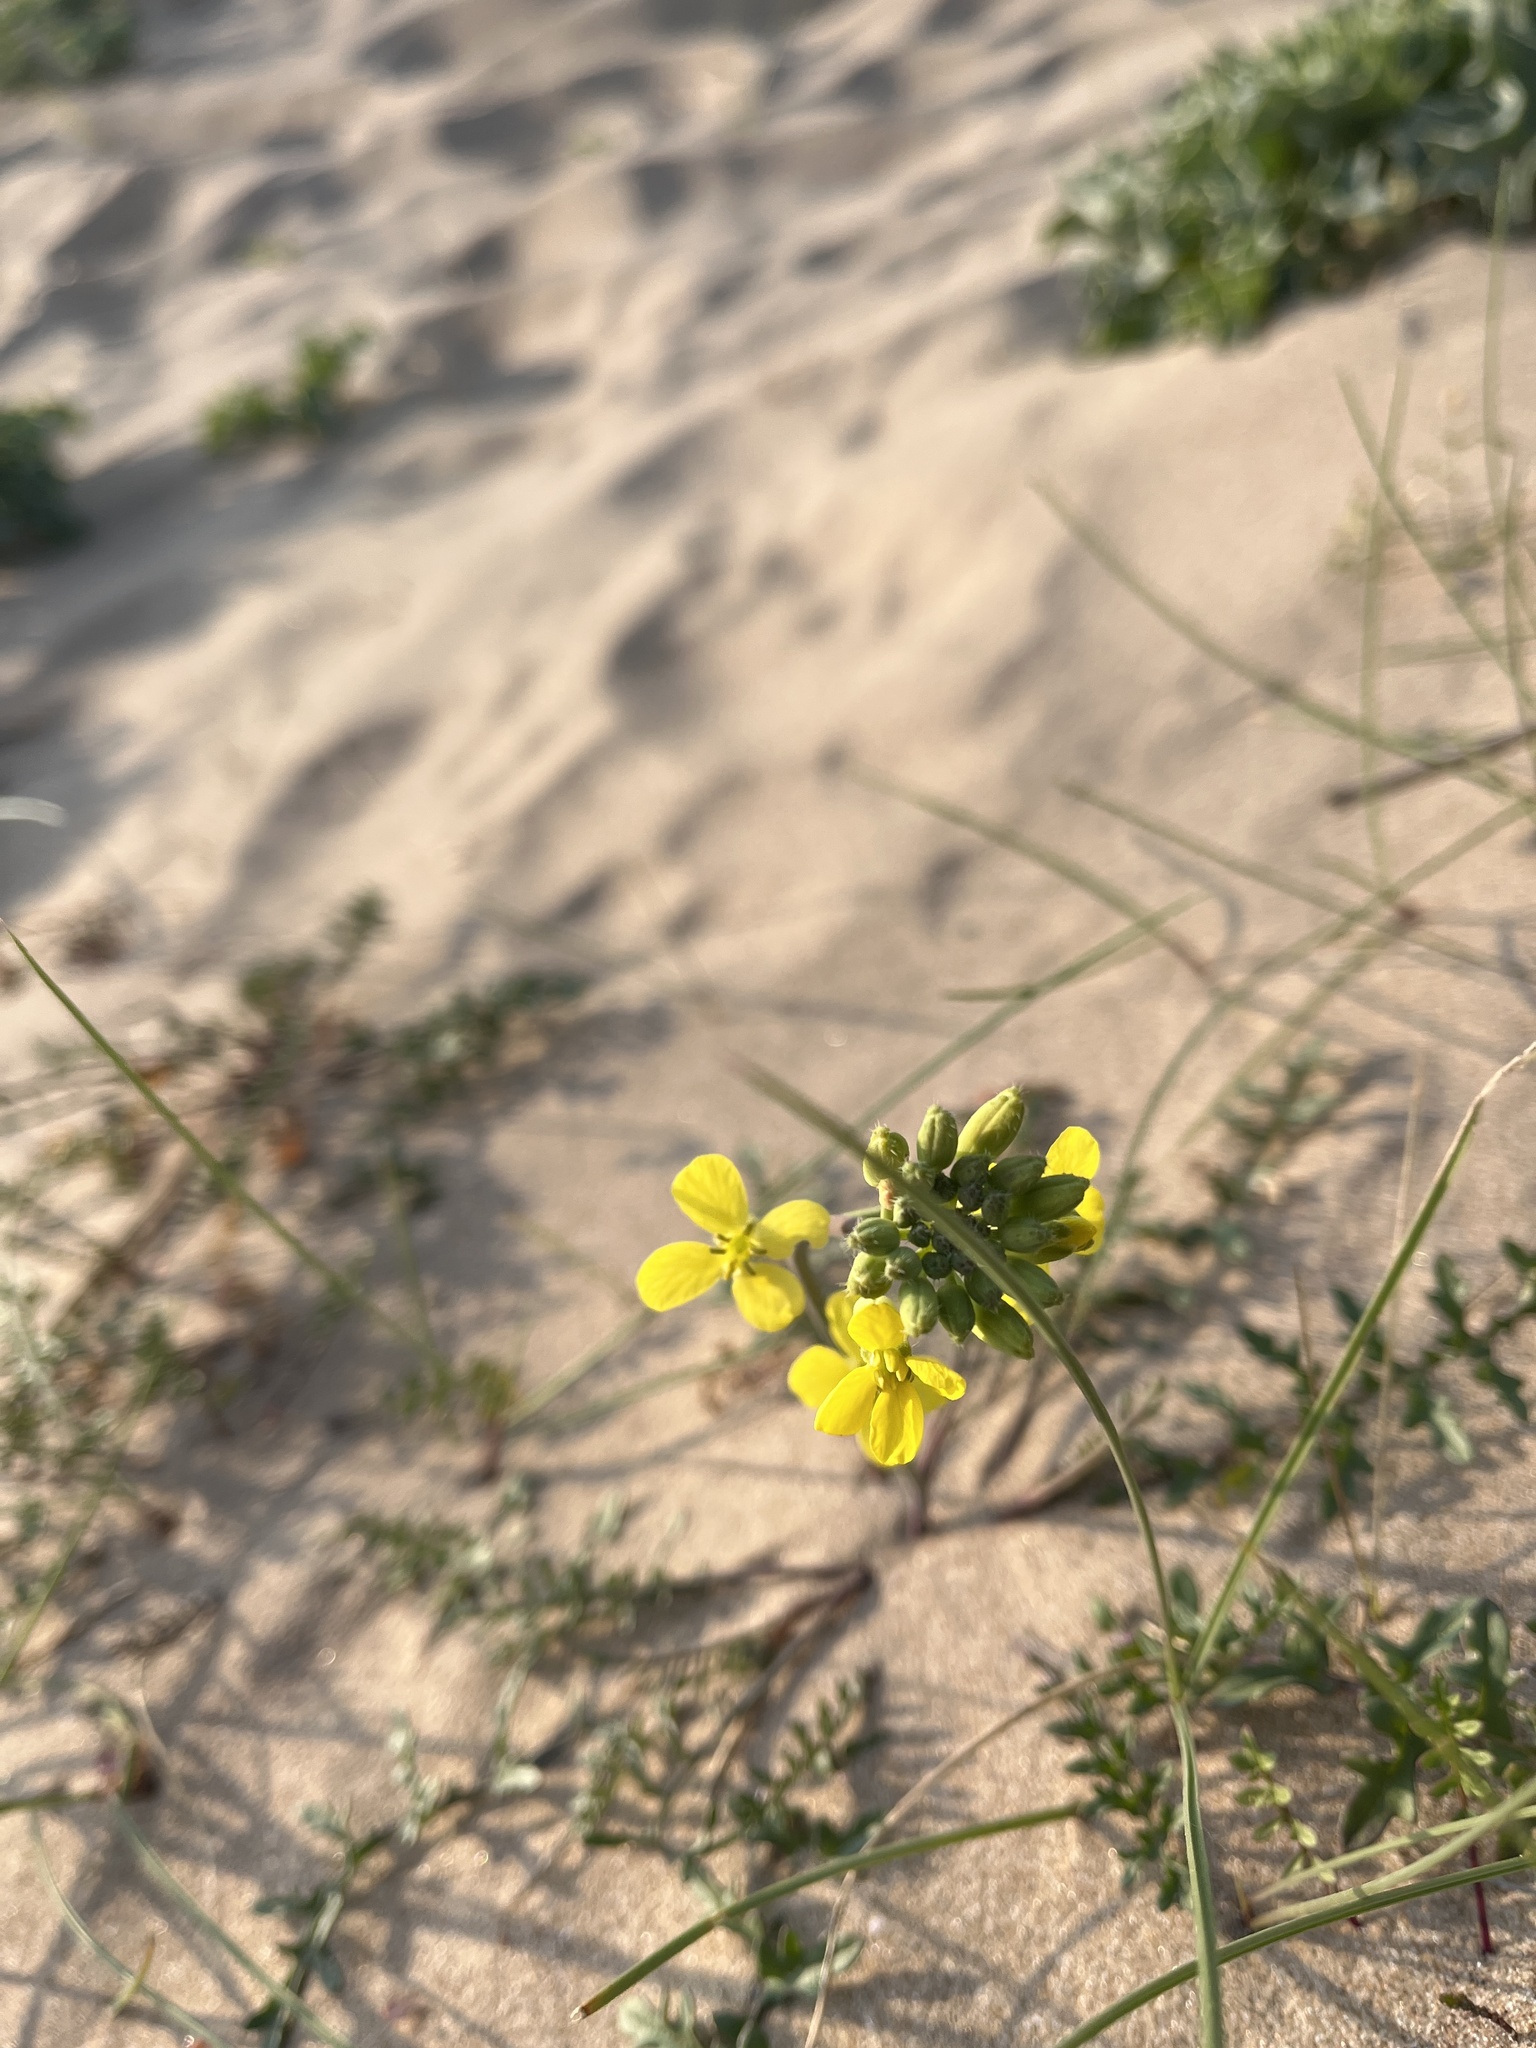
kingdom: Plantae
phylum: Tracheophyta
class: Magnoliopsida
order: Brassicales
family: Brassicaceae
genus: Coincya
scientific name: Coincya monensis
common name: Star-mustard
